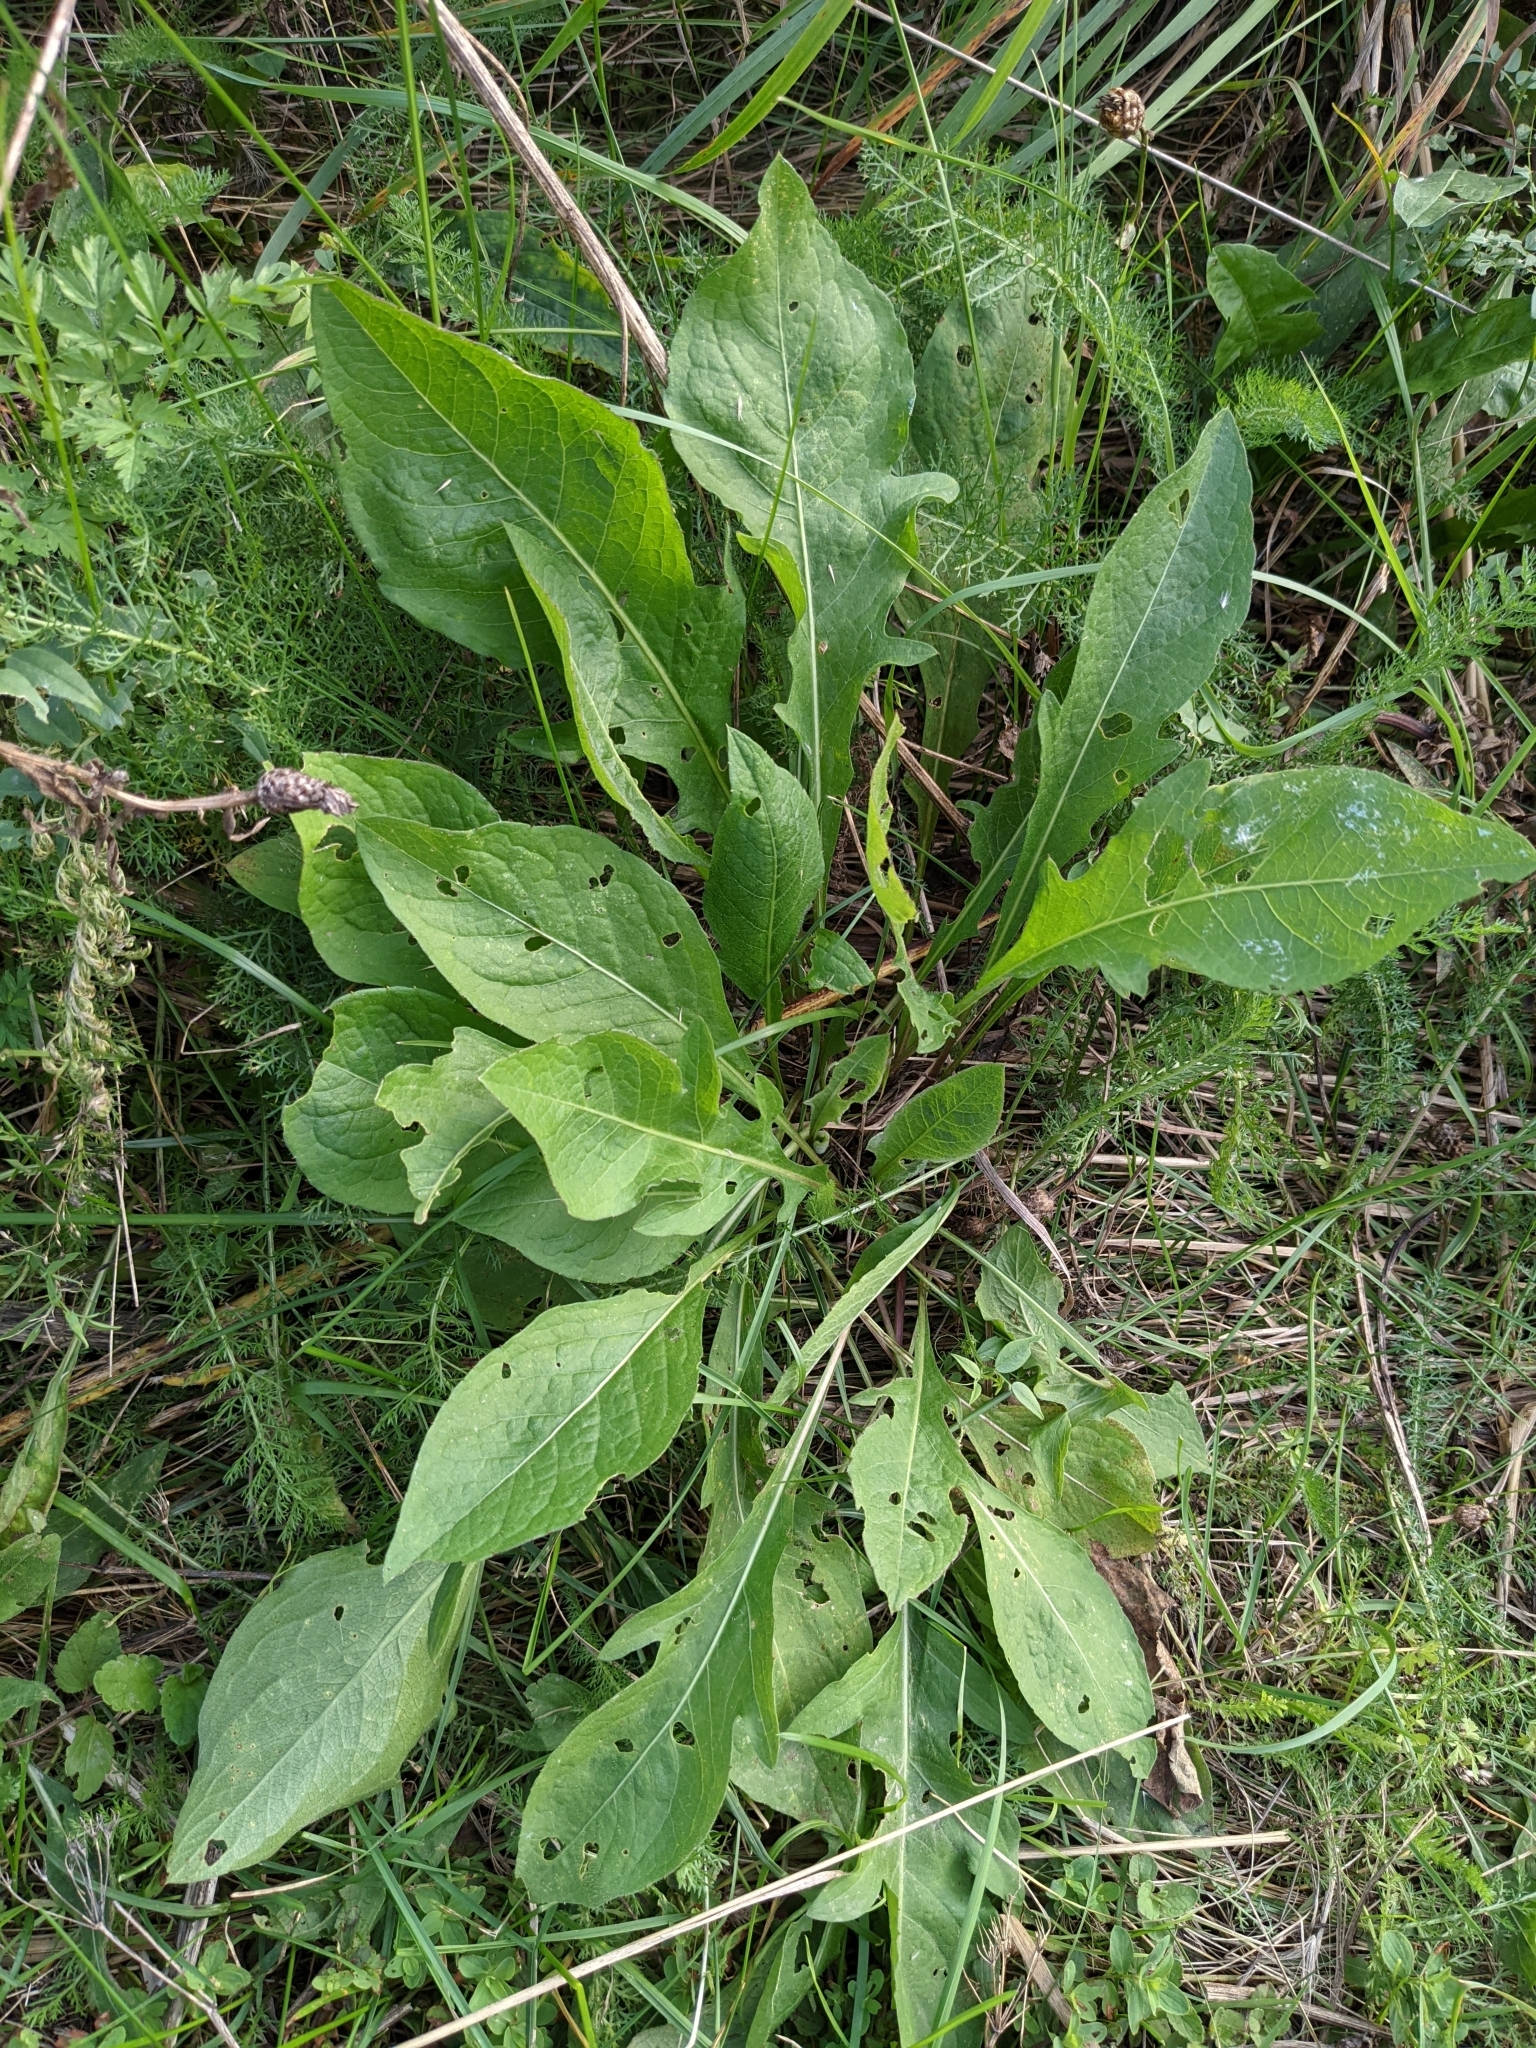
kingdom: Plantae
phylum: Tracheophyta
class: Magnoliopsida
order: Asterales
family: Asteraceae
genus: Centaurea
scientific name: Centaurea jacea
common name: Brown knapweed
